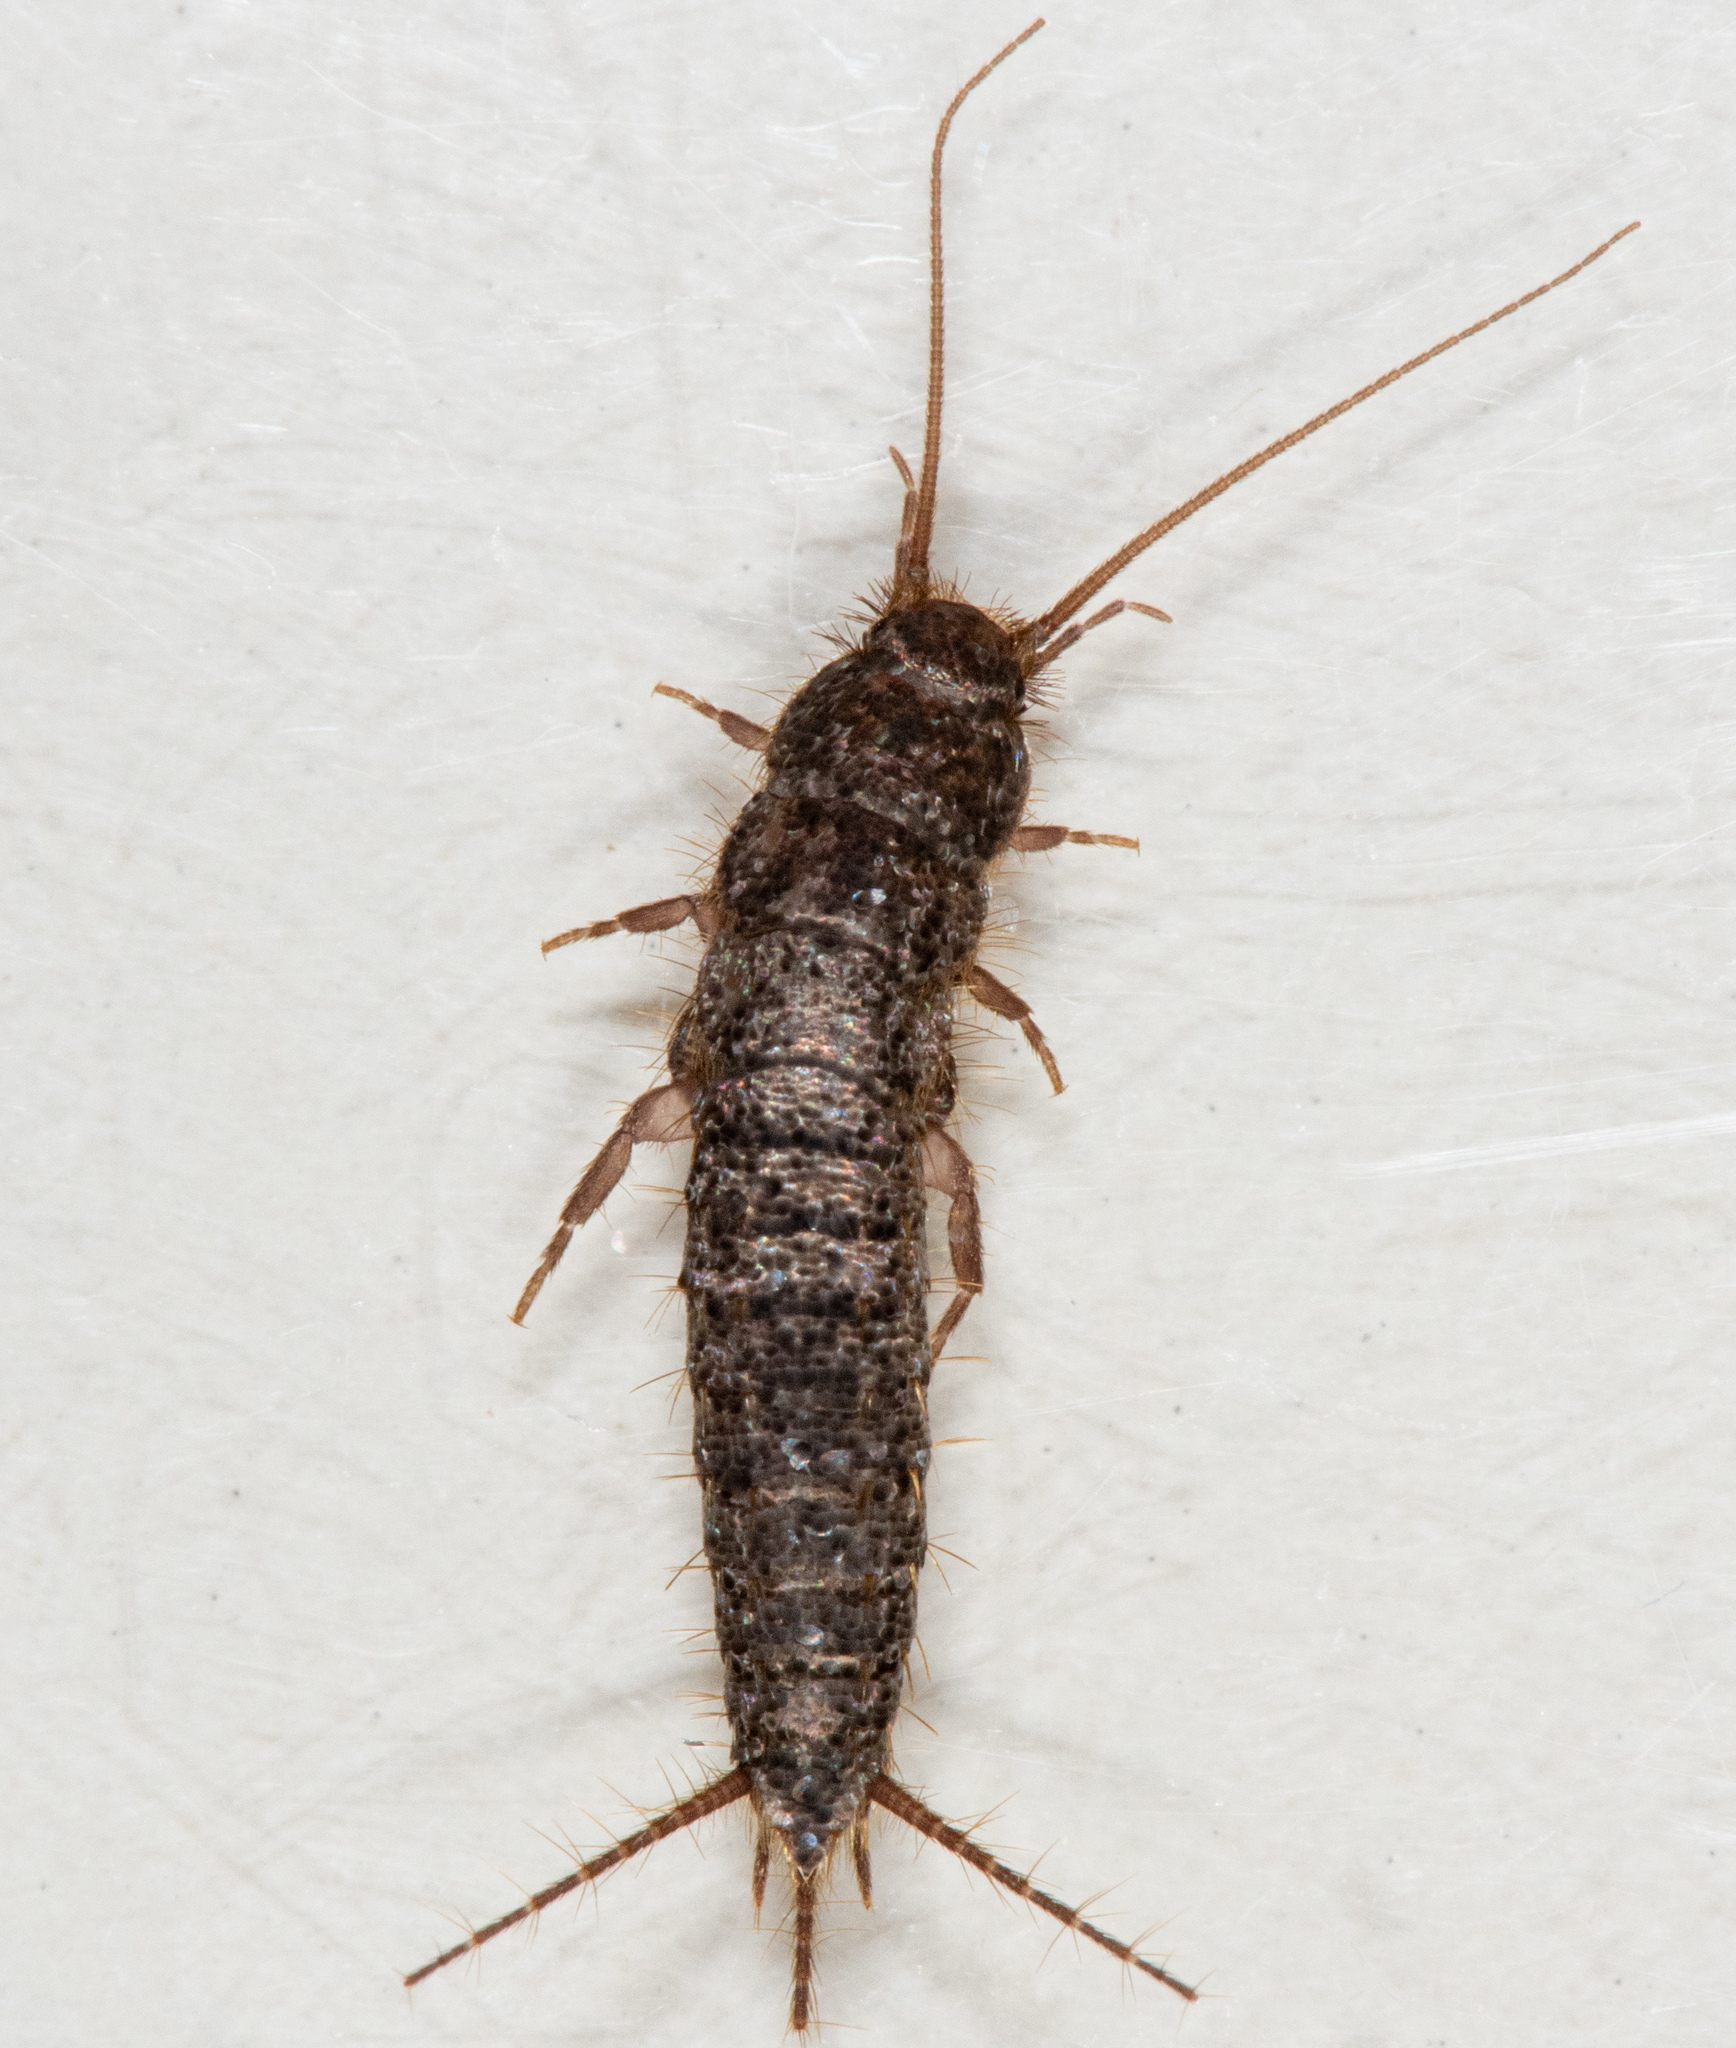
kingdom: Animalia
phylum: Arthropoda
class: Insecta
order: Zygentoma
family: Lepismatidae
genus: Allacrotelsa
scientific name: Allacrotelsa spinulata
